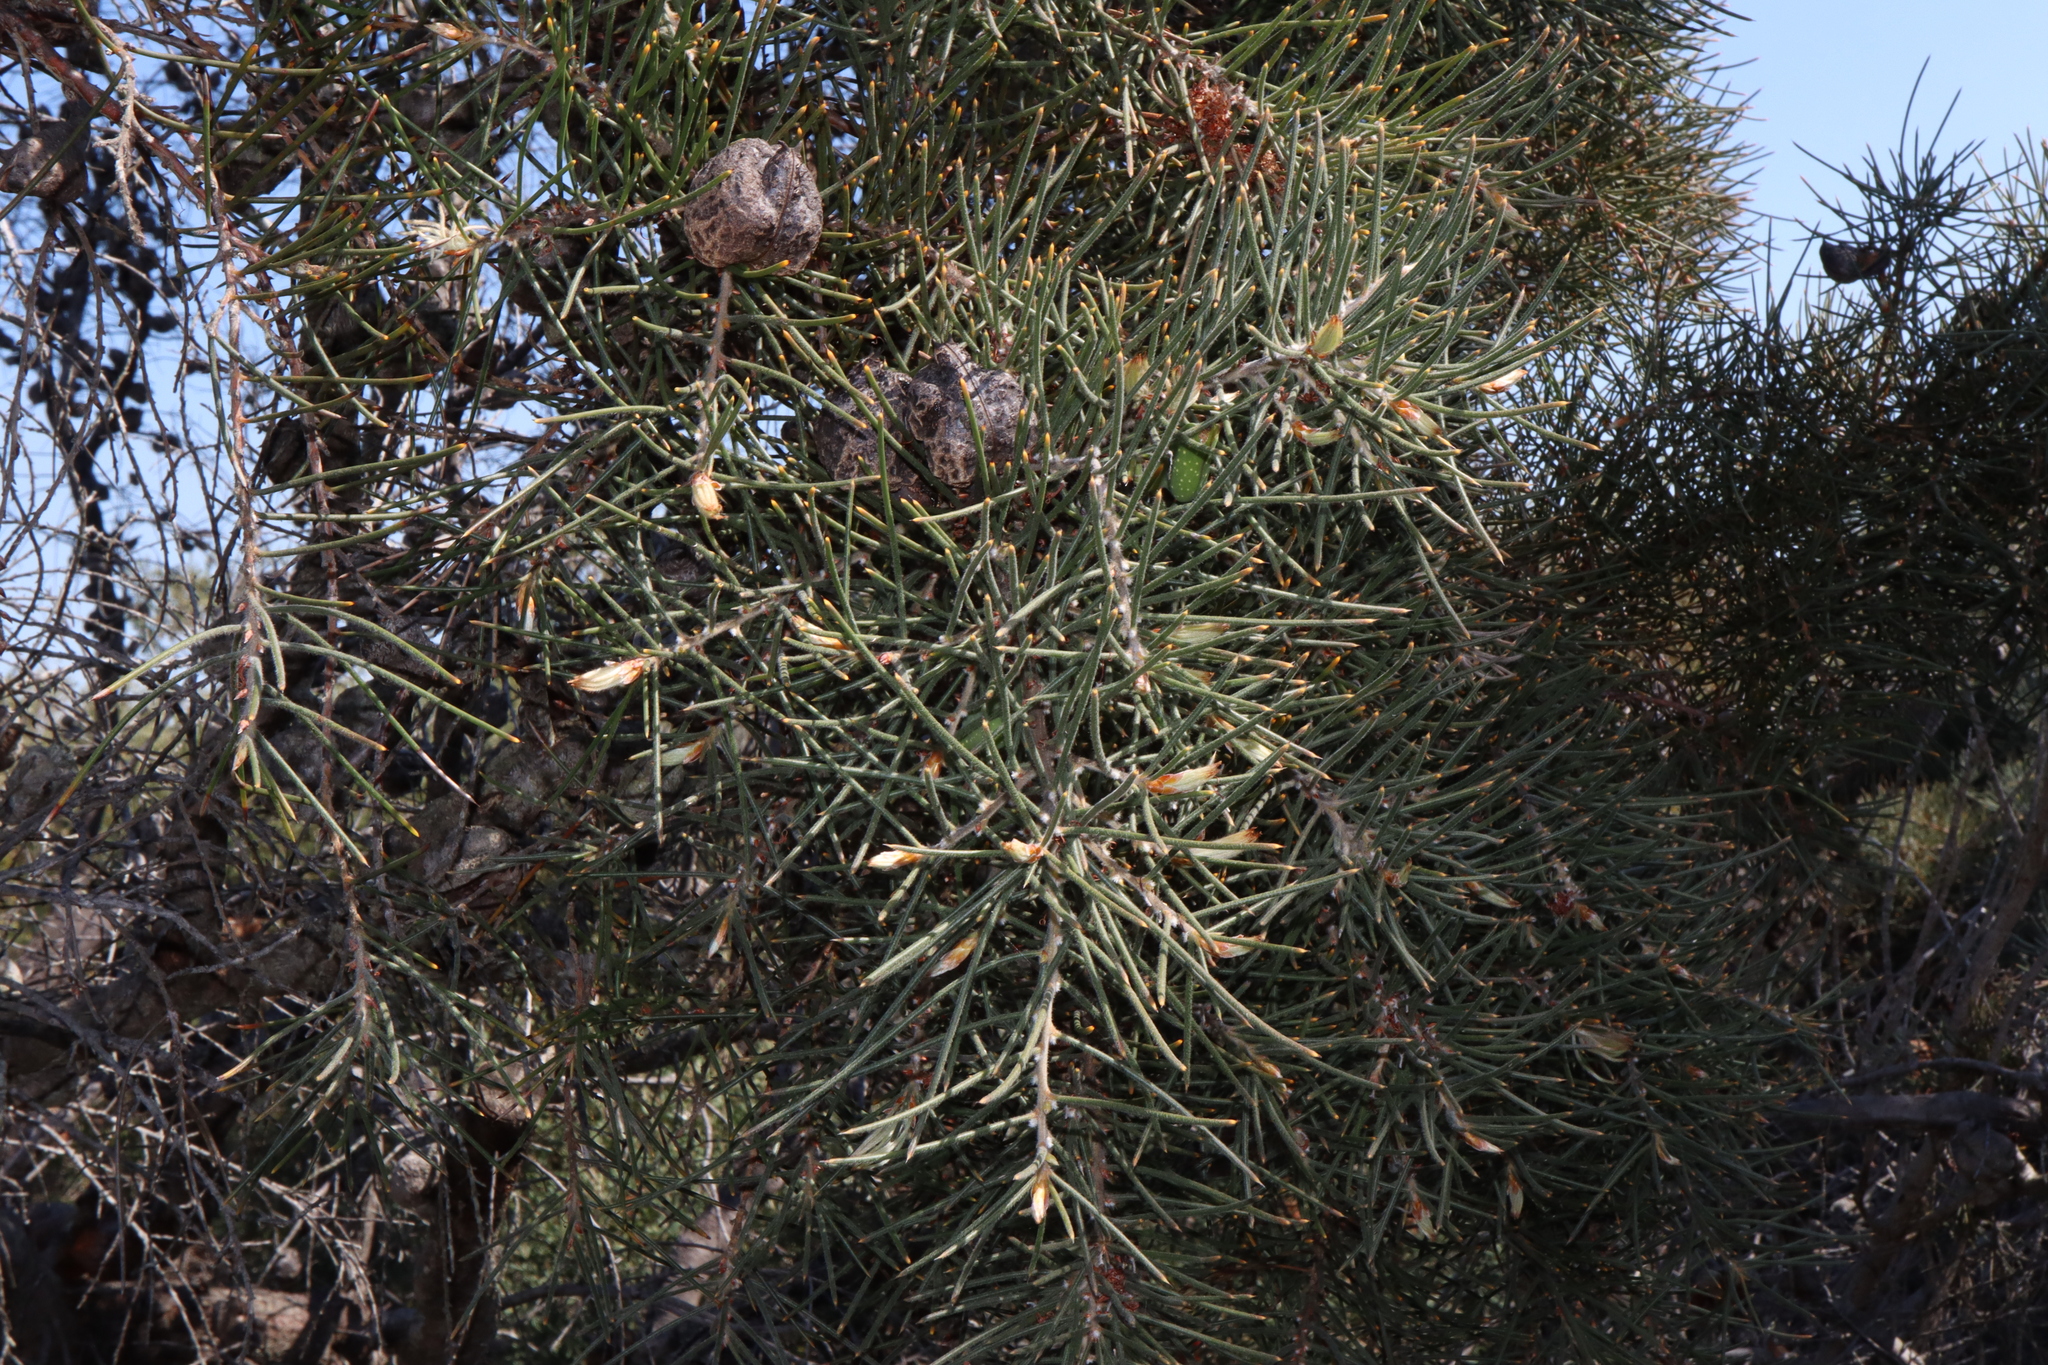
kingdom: Plantae
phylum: Tracheophyta
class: Magnoliopsida
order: Proteales
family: Proteaceae
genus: Hakea
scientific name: Hakea gibbosa
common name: Rock hakea
